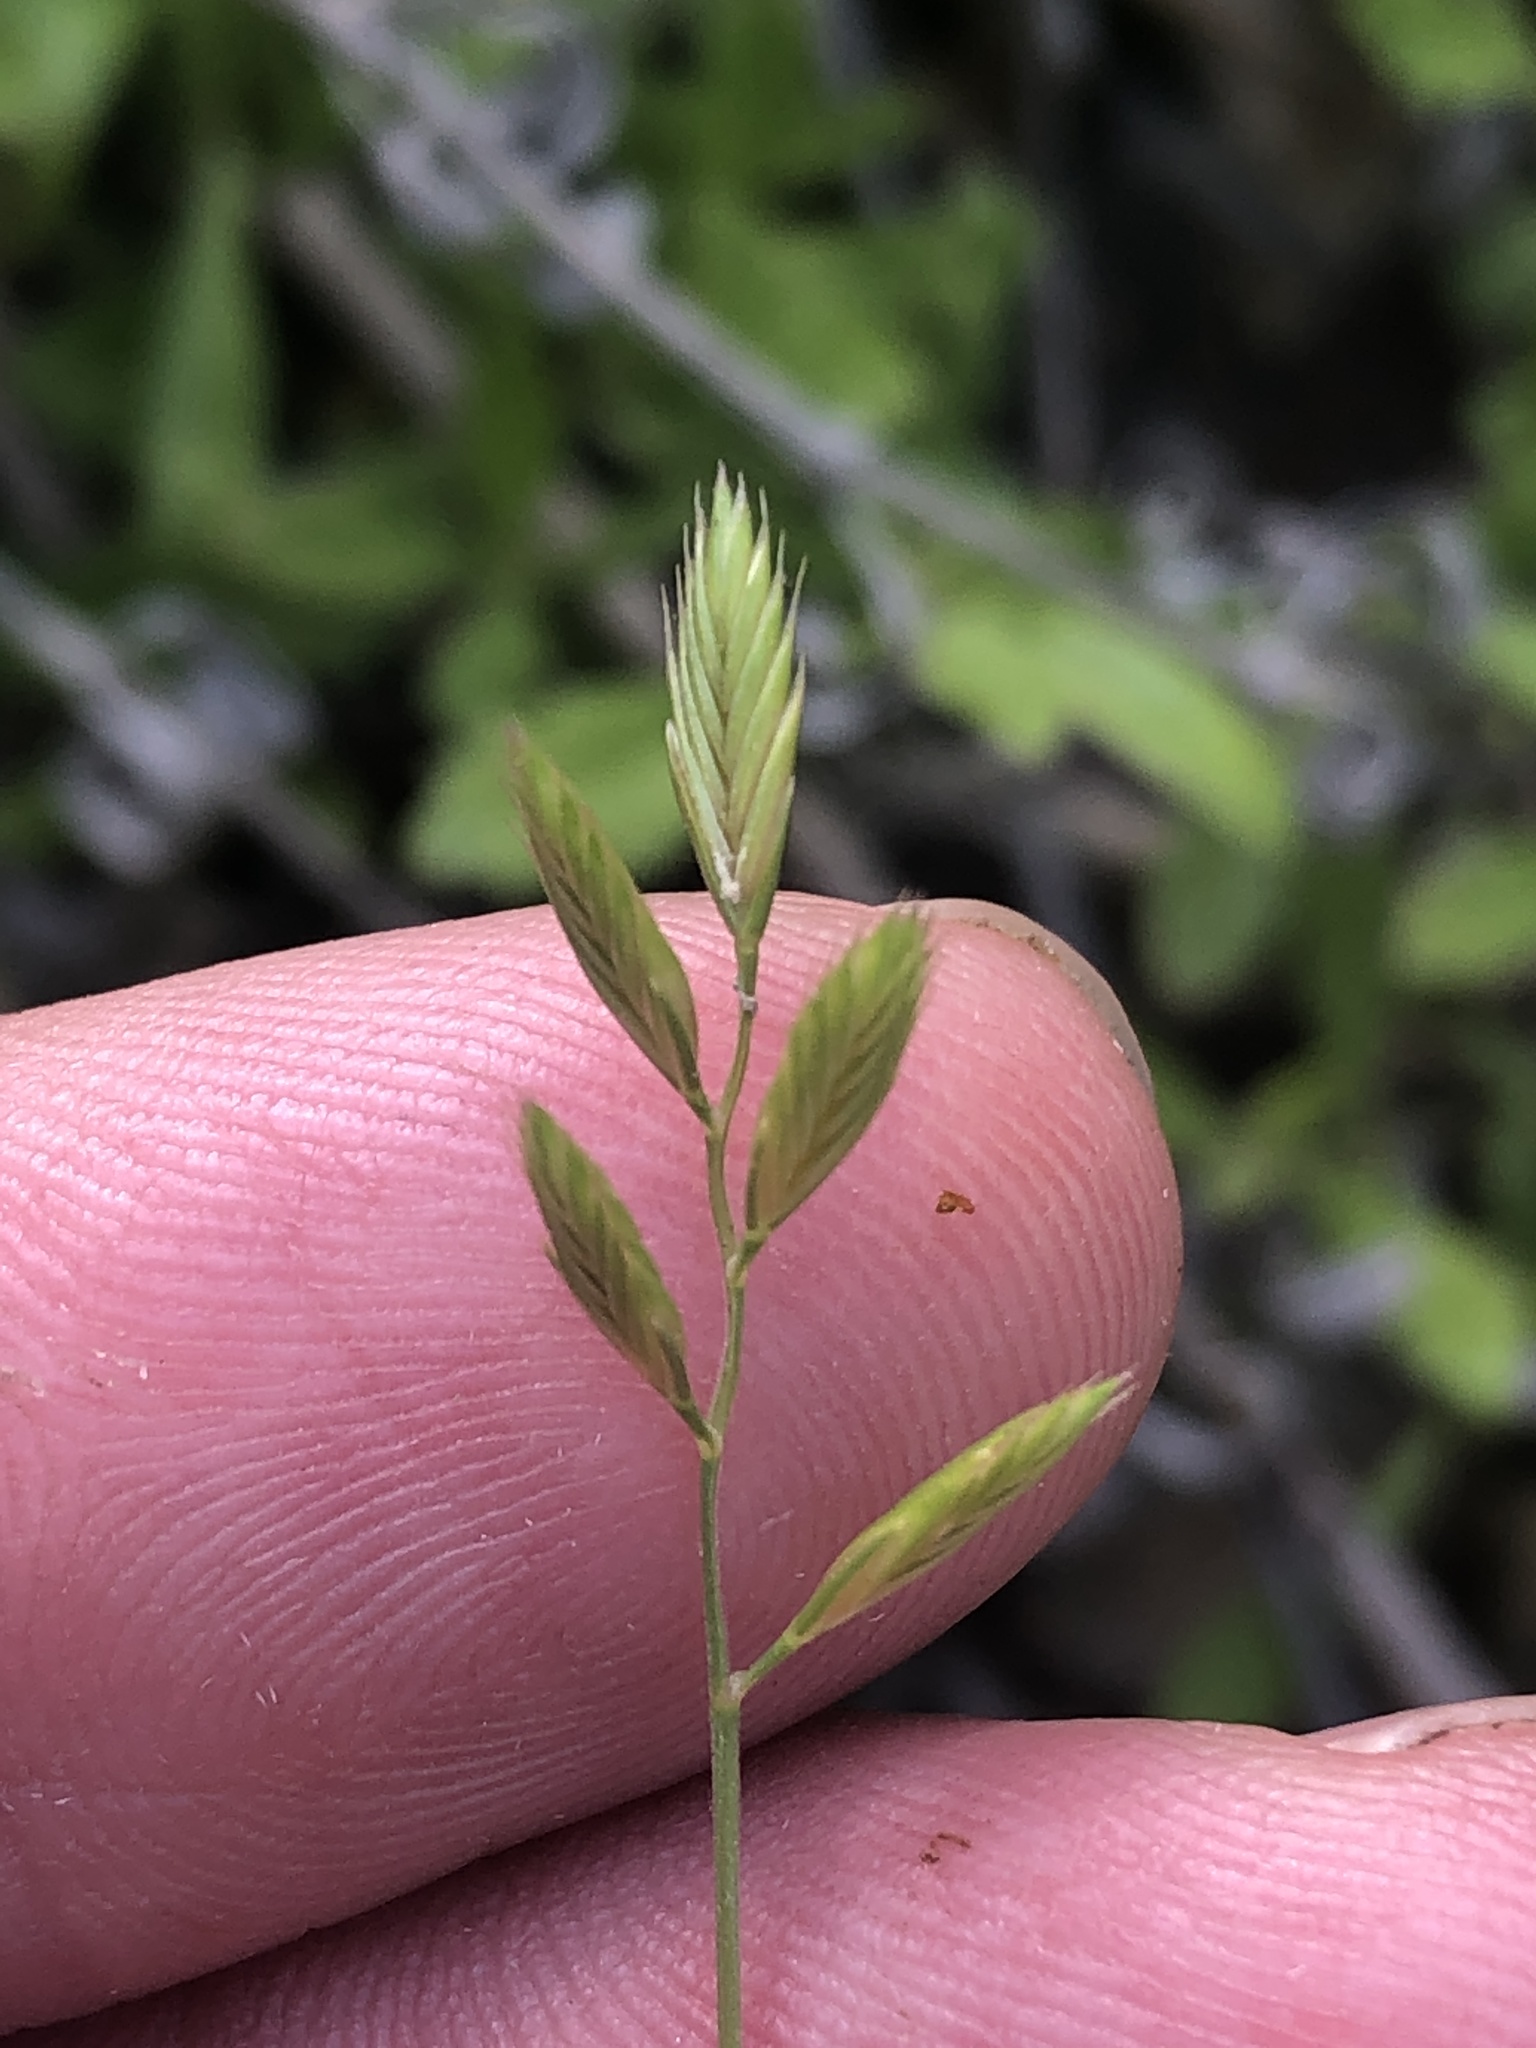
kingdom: Plantae
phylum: Tracheophyta
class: Liliopsida
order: Poales
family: Poaceae
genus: Festuca
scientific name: Festuca octoflora
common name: Sixweeks grass
